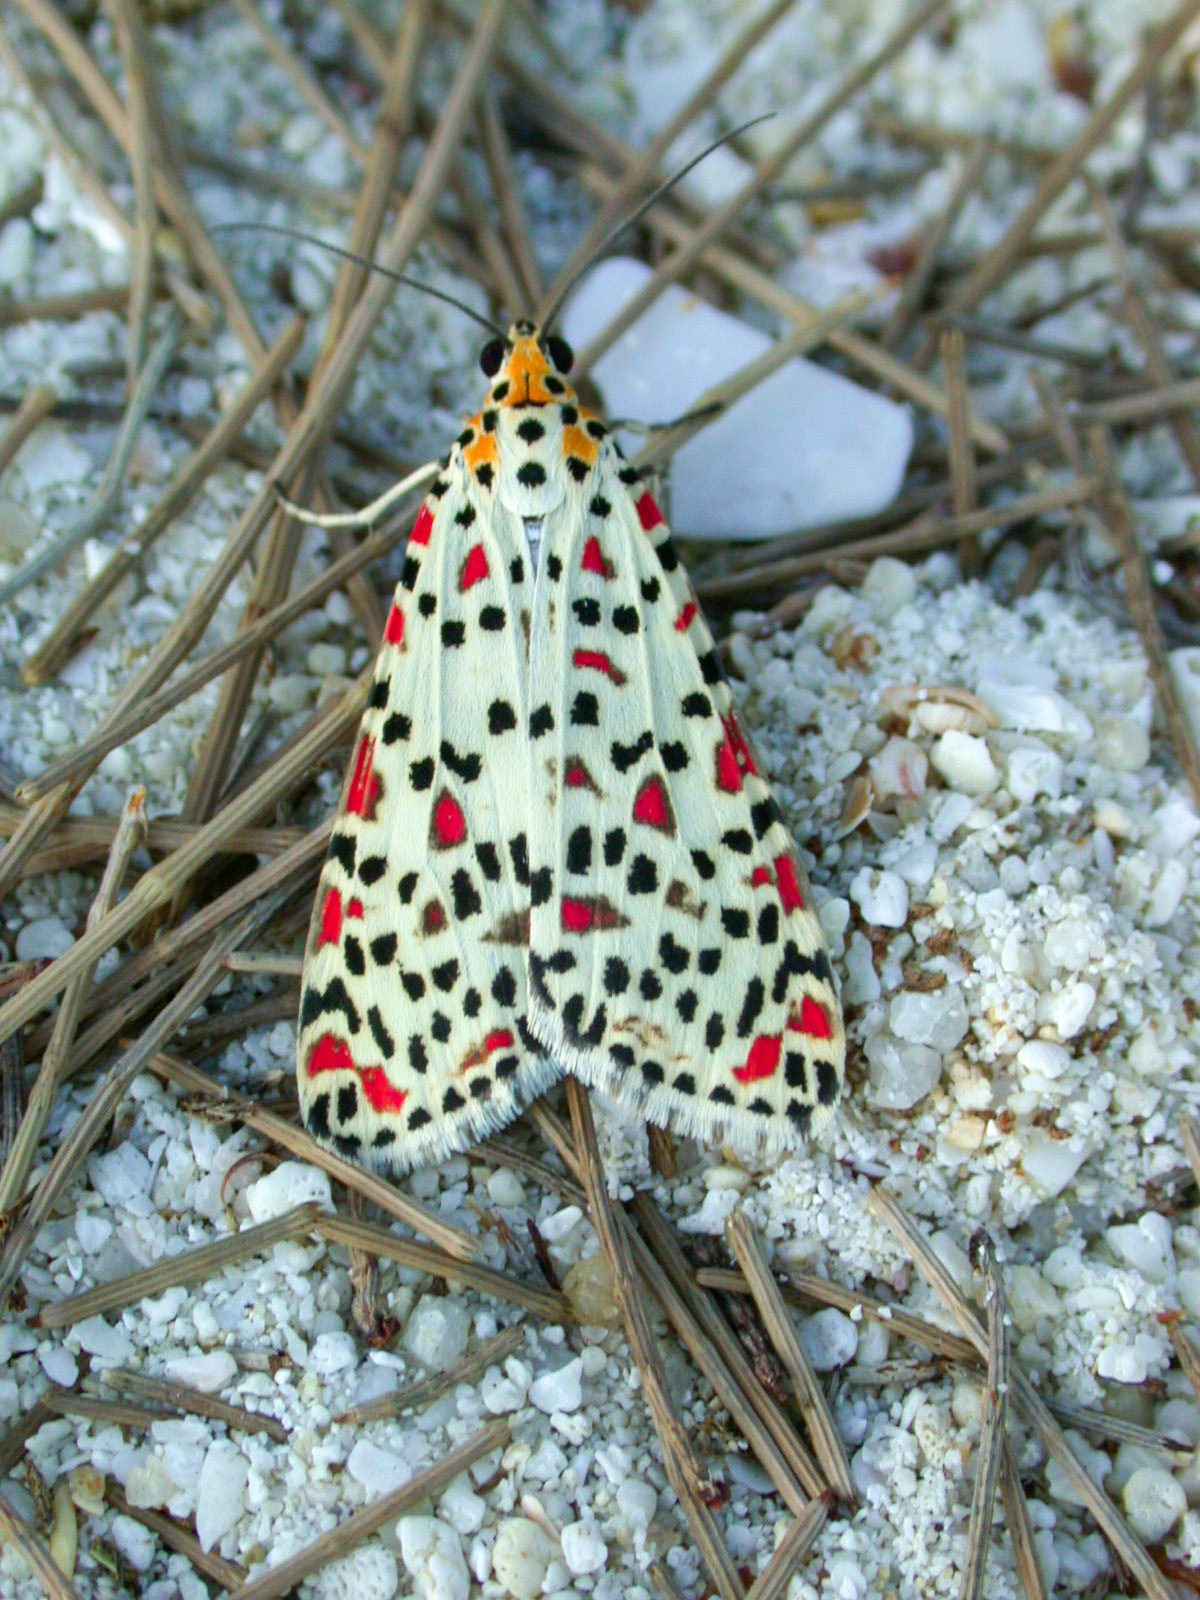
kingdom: Animalia
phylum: Arthropoda
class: Insecta
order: Lepidoptera
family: Erebidae
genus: Utetheisa
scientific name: Utetheisa lotrix
